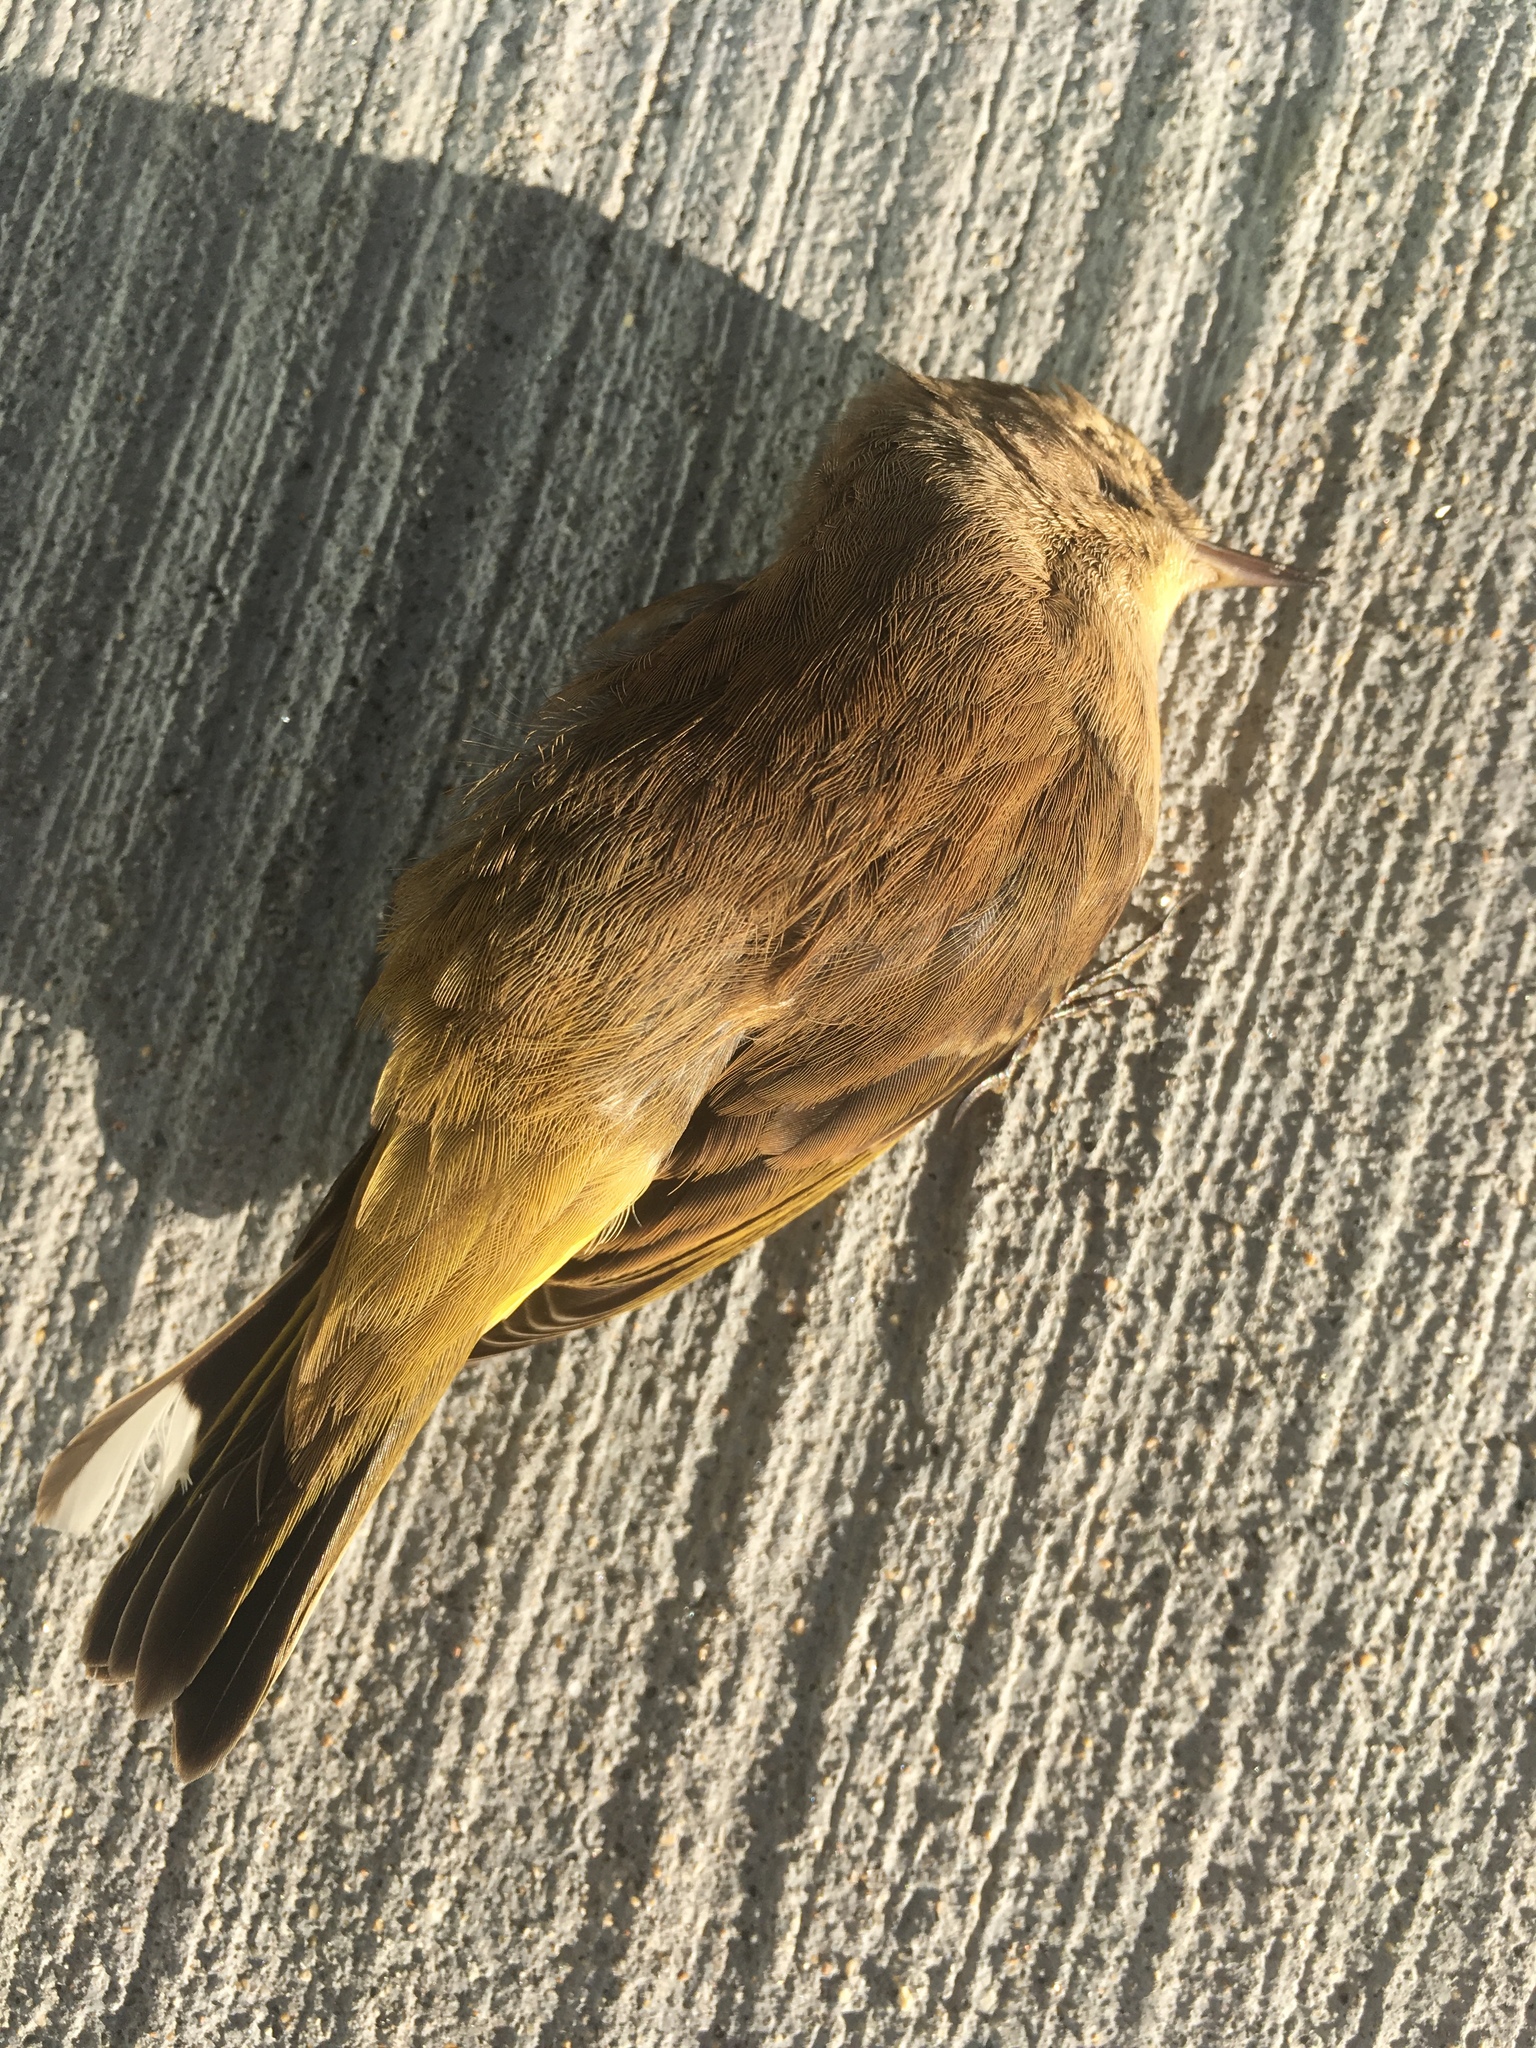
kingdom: Animalia
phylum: Chordata
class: Aves
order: Passeriformes
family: Parulidae
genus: Setophaga
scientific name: Setophaga palmarum
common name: Palm warbler
